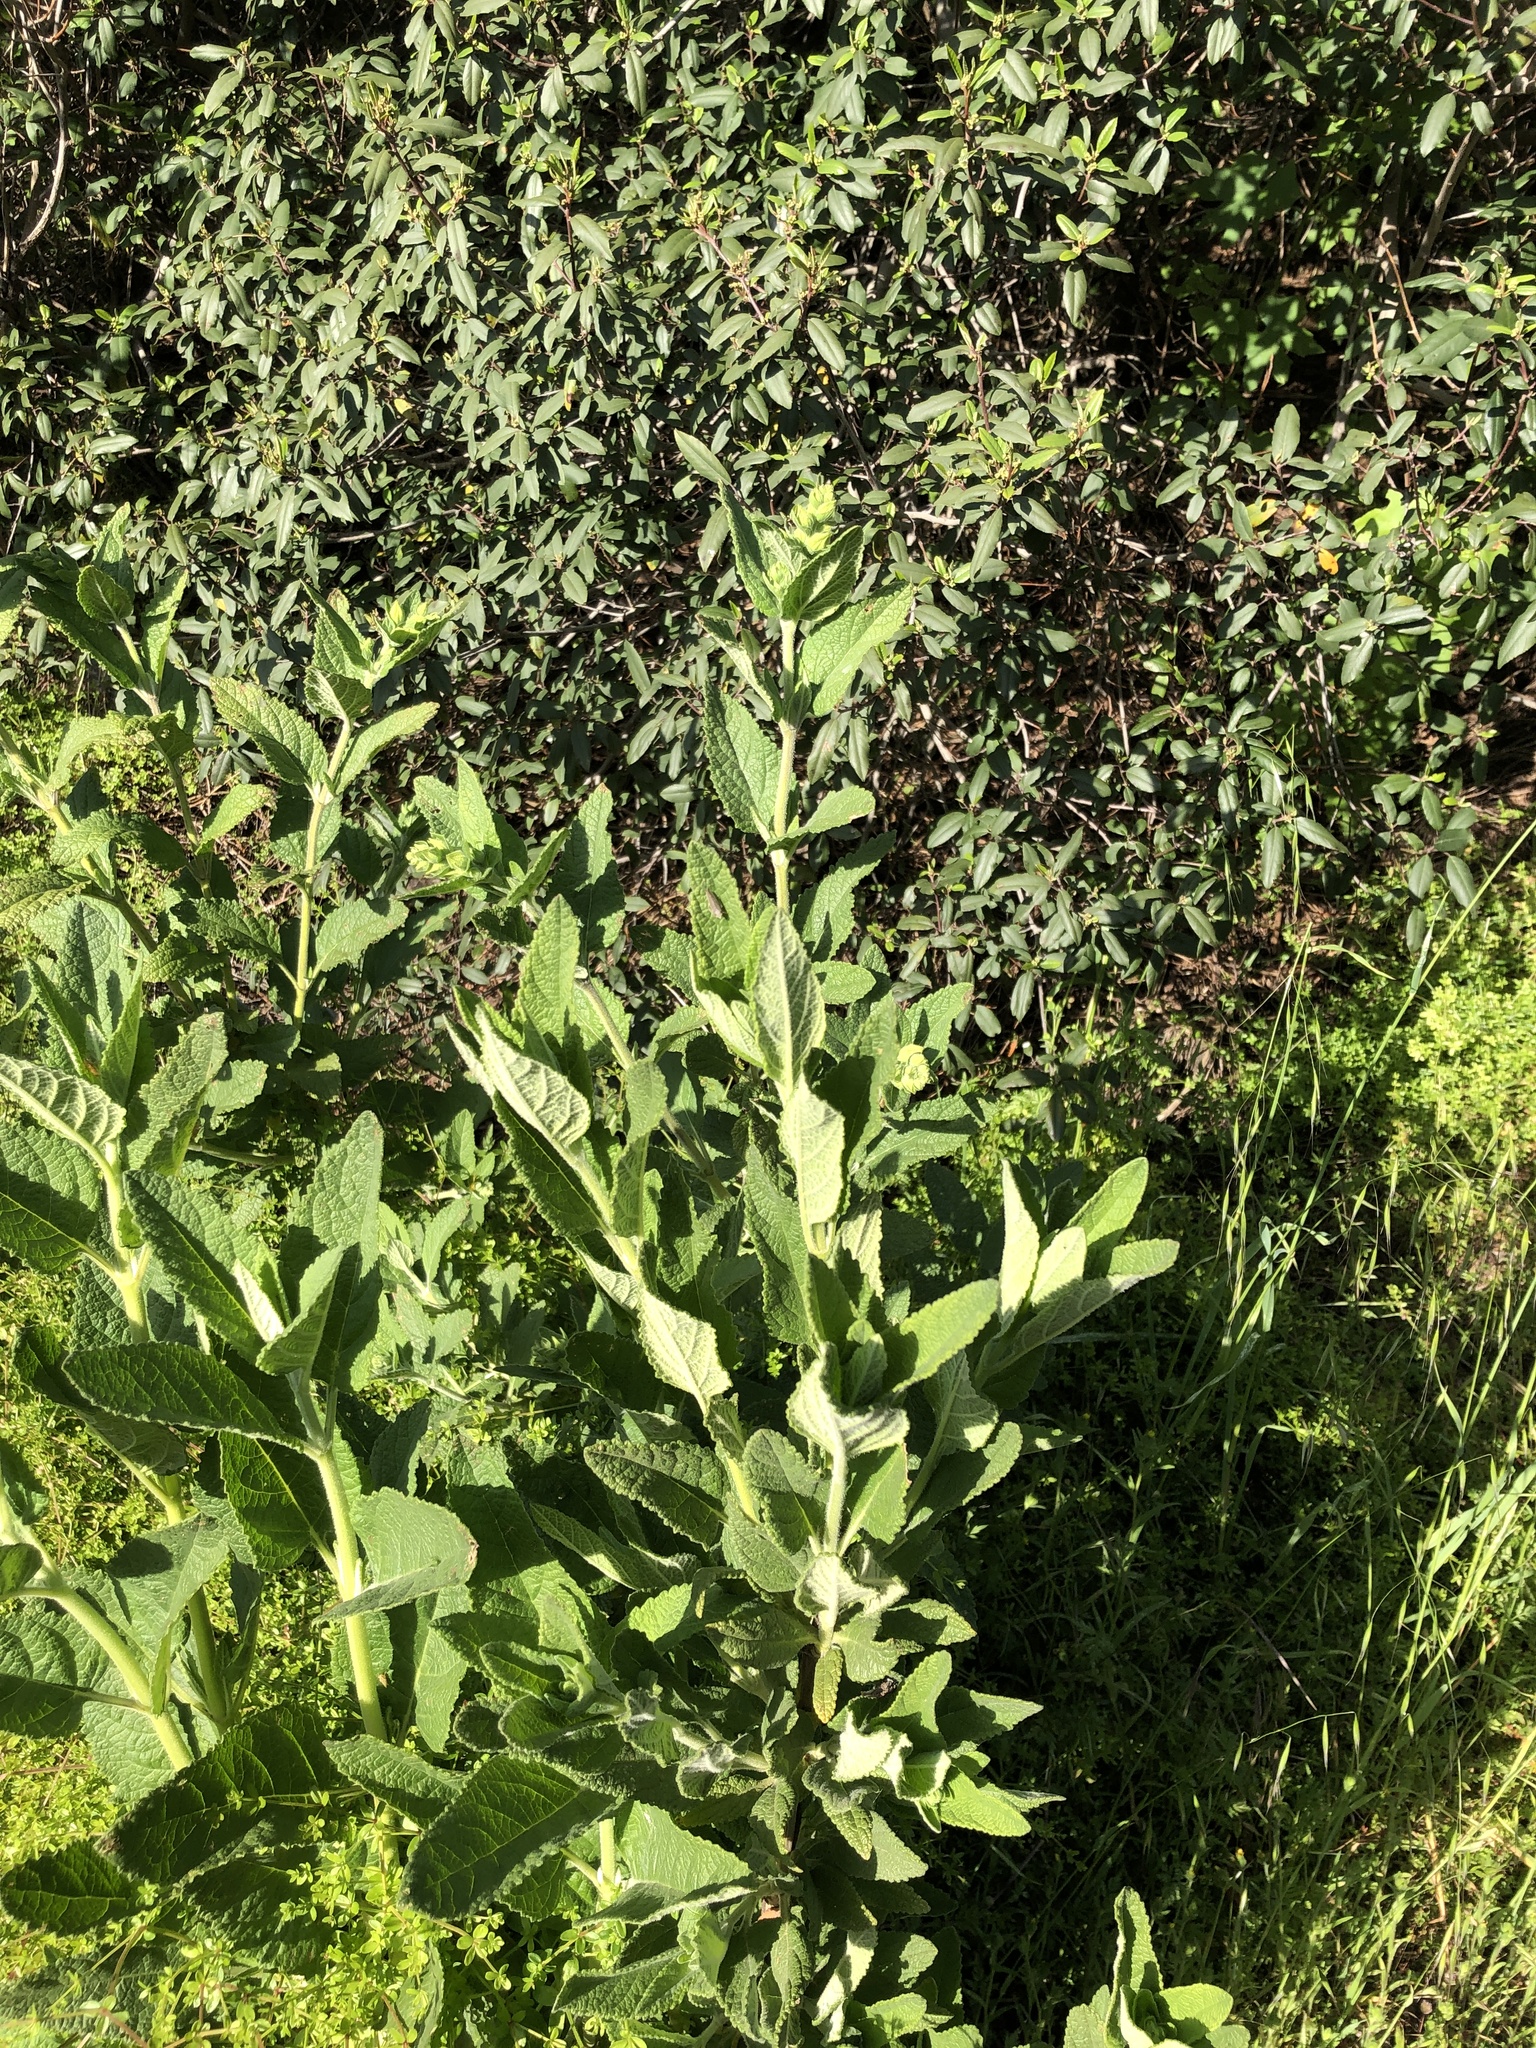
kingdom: Plantae
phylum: Tracheophyta
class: Magnoliopsida
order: Lamiales
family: Lamiaceae
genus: Lepechinia
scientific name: Lepechinia calycina
